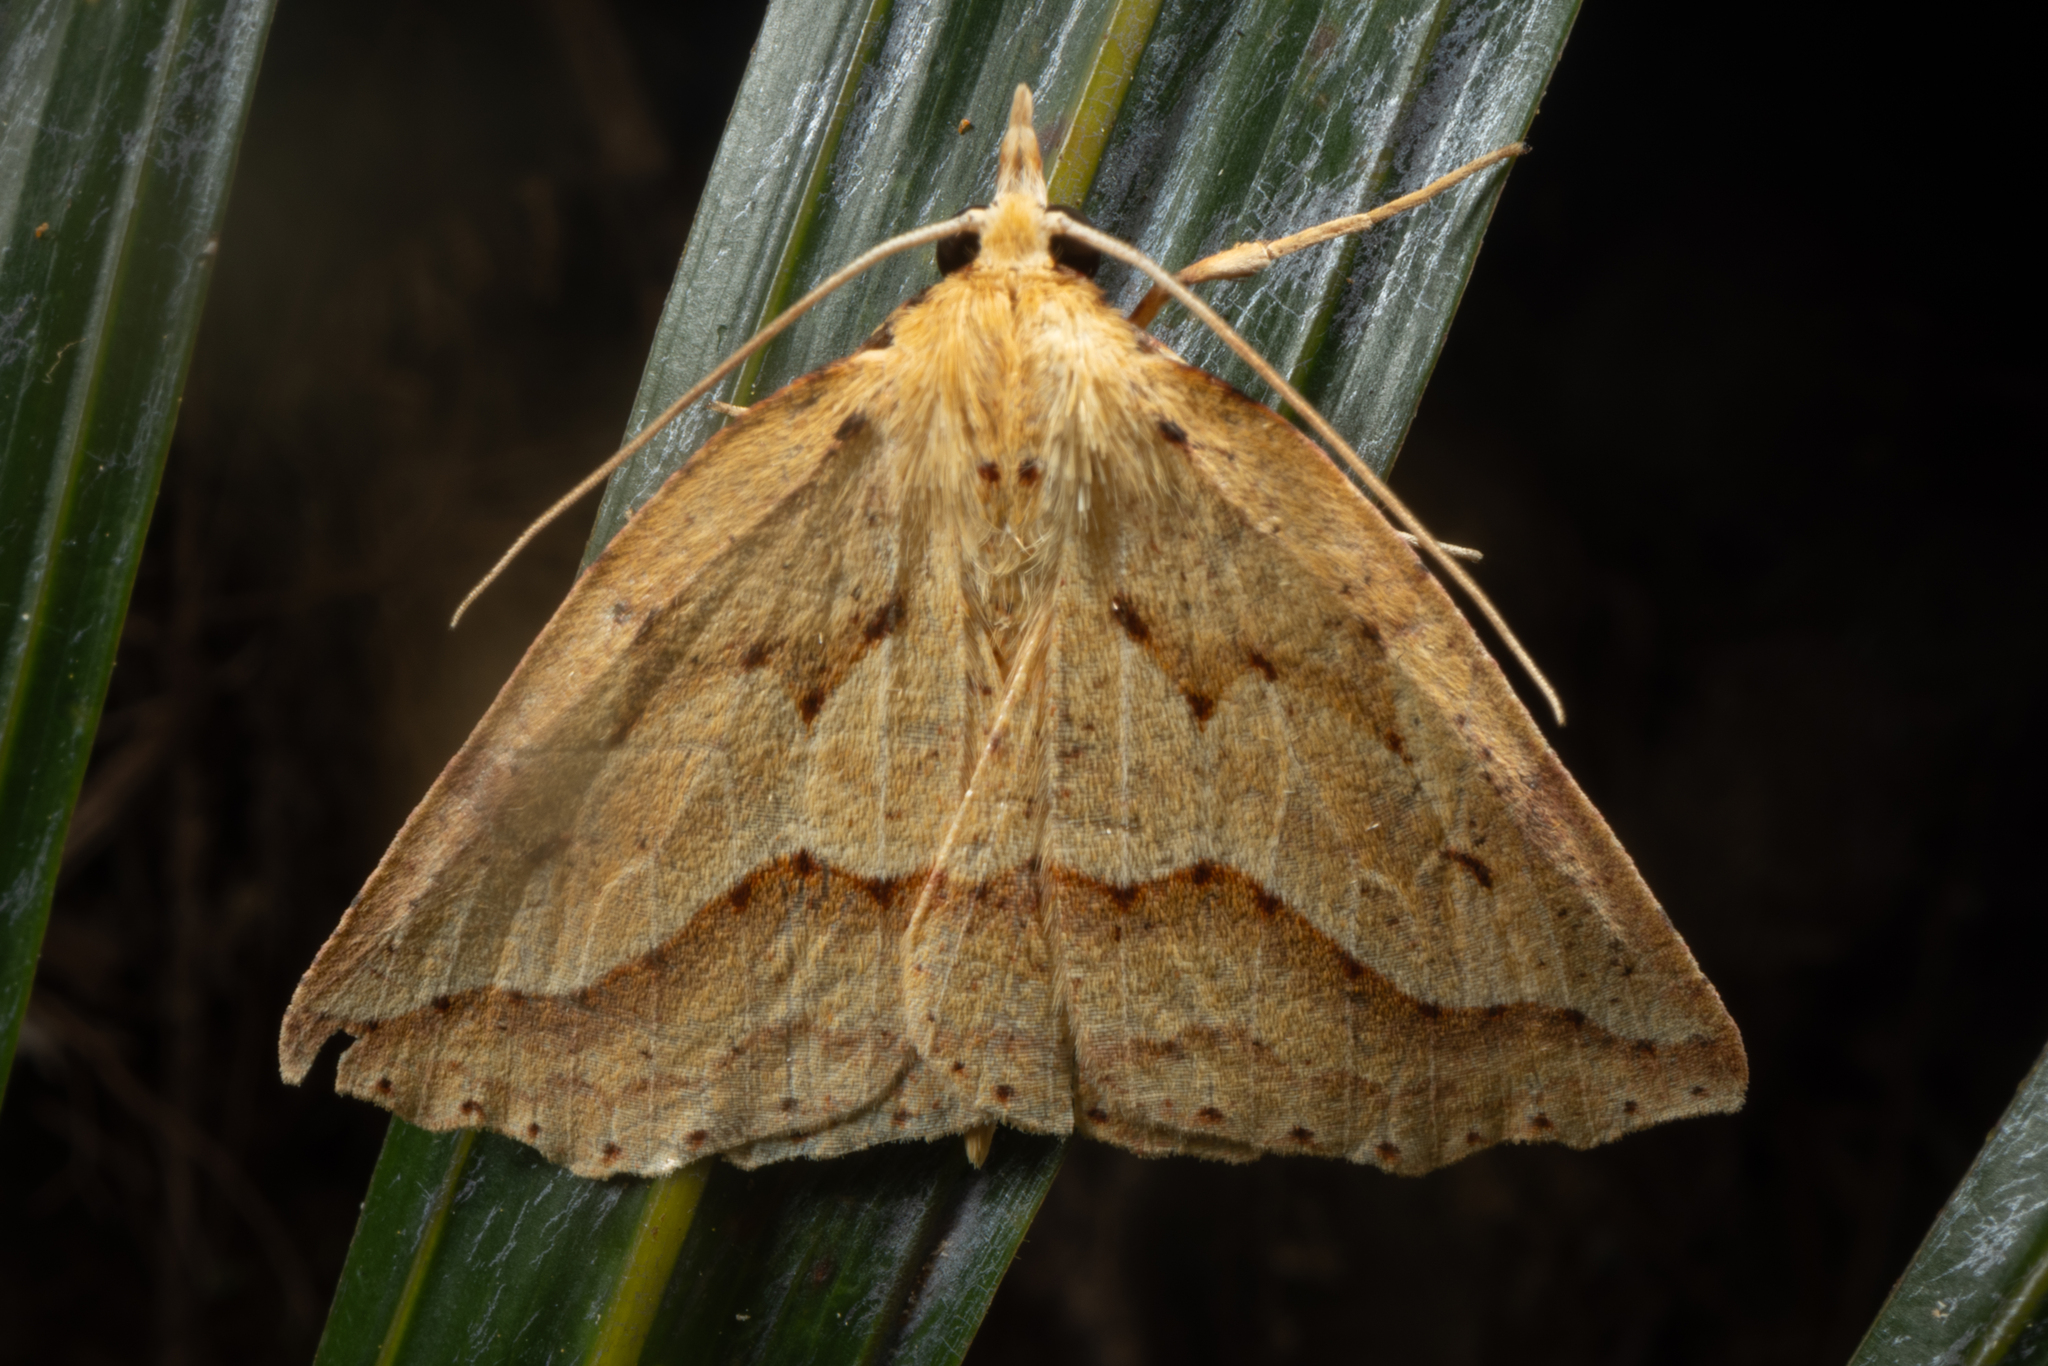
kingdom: Animalia
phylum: Arthropoda
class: Insecta
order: Lepidoptera
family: Geometridae
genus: Ischalis
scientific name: Ischalis variabilis
